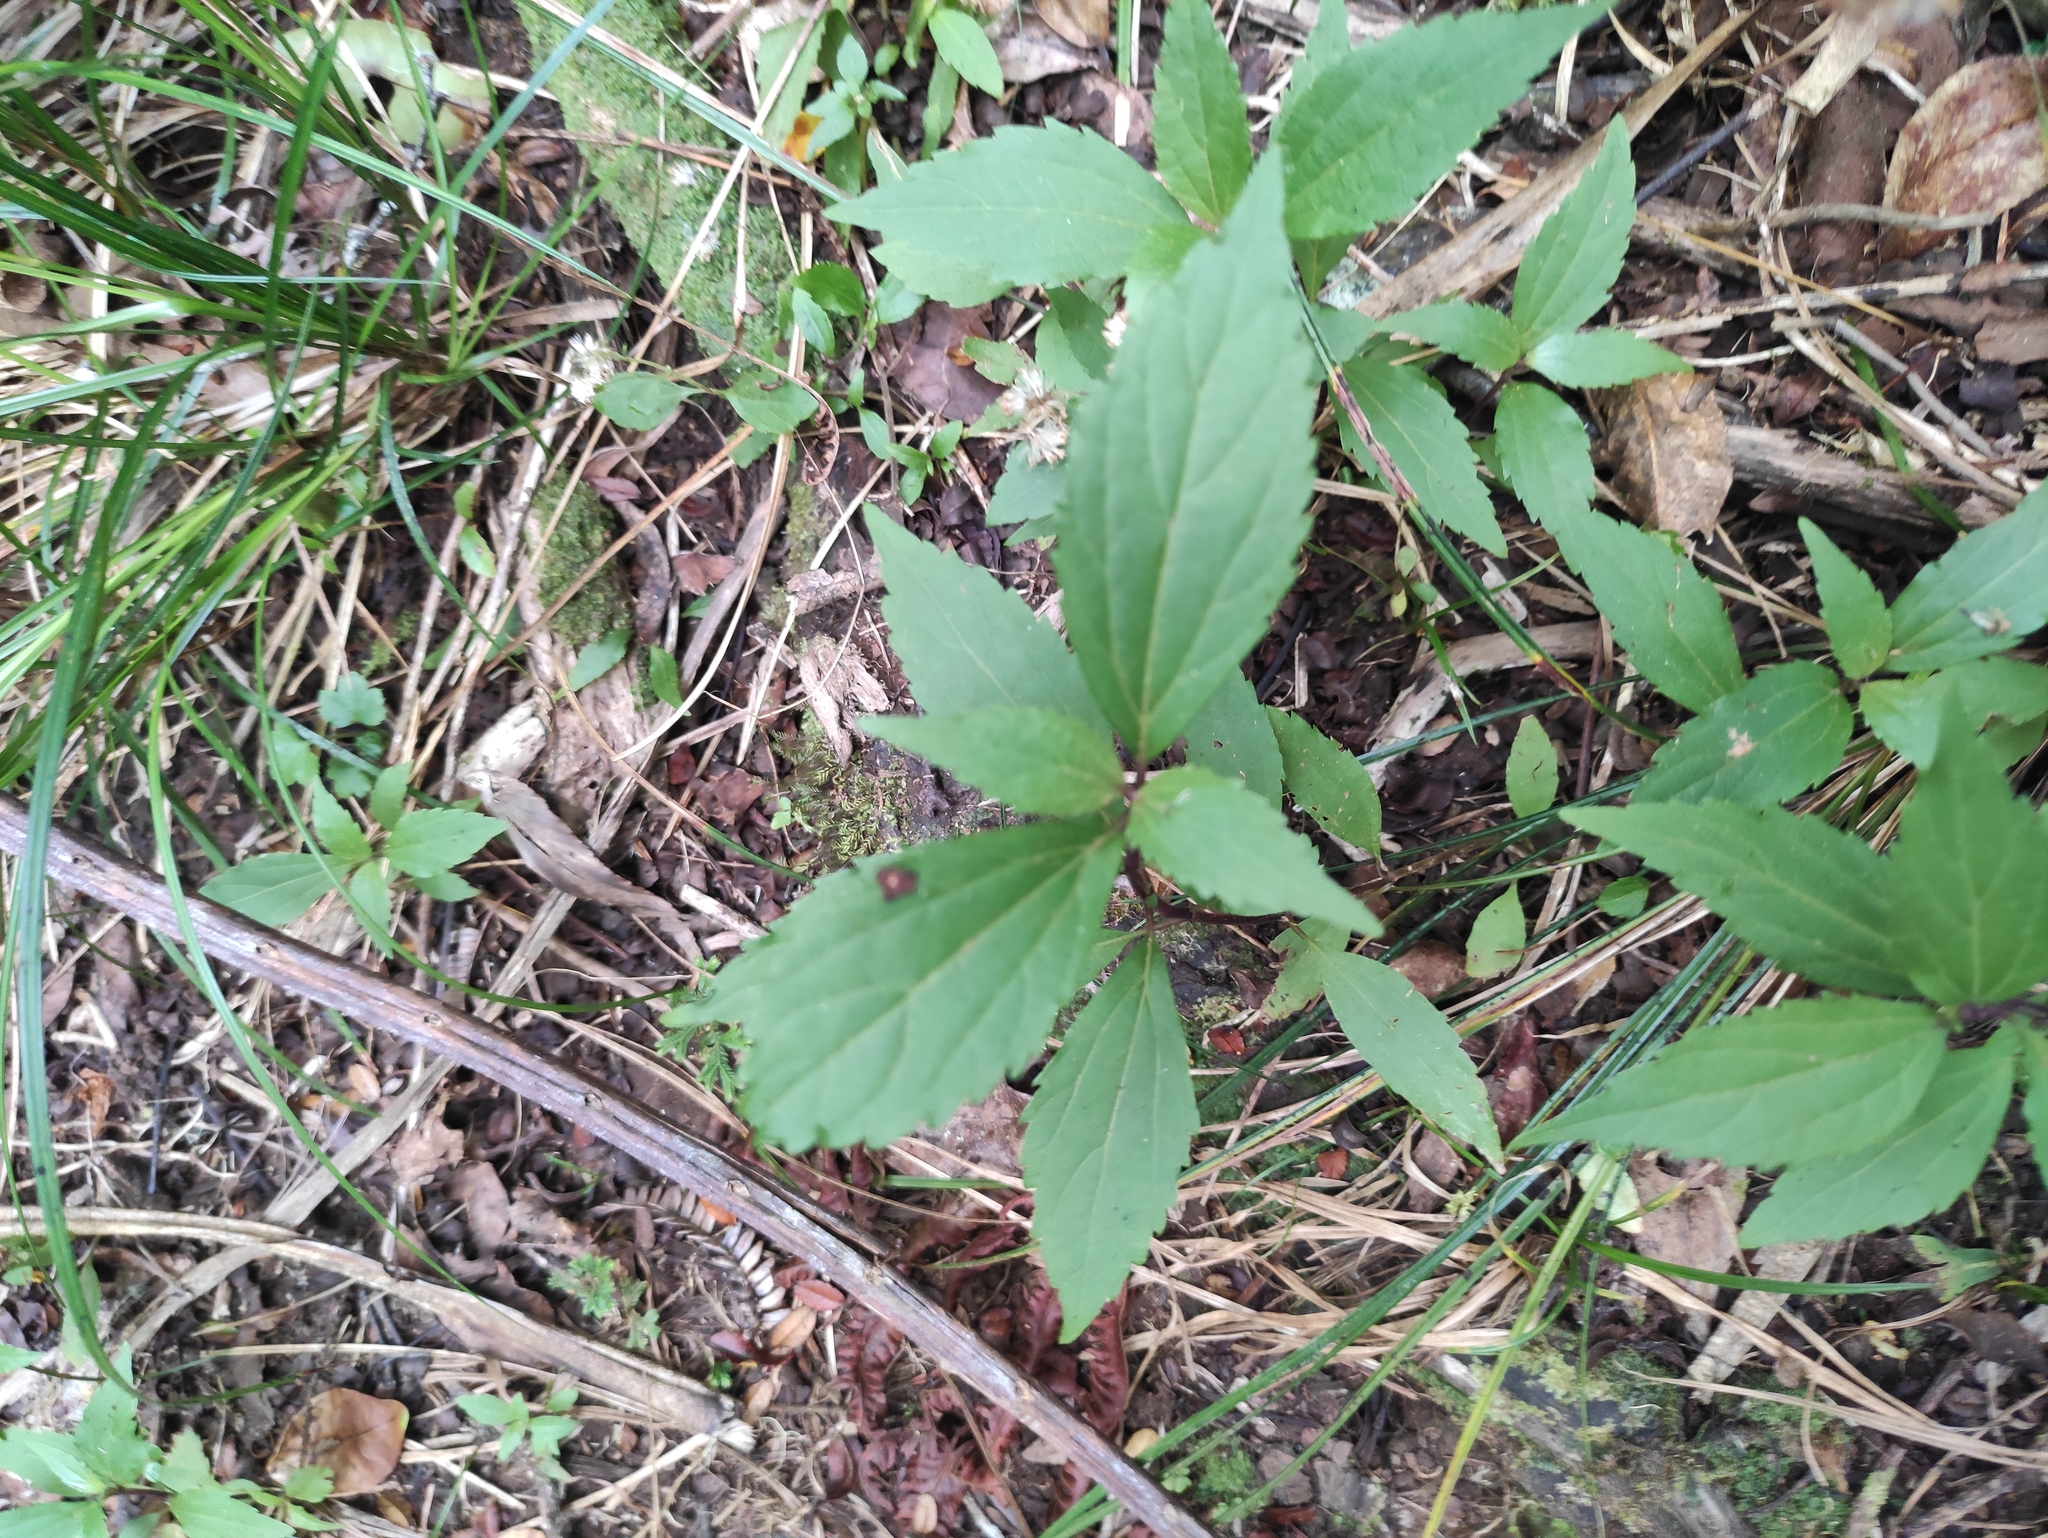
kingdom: Plantae
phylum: Tracheophyta
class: Magnoliopsida
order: Asterales
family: Asteraceae
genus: Ageratina
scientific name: Ageratina riparia
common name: Creeping croftonweed
